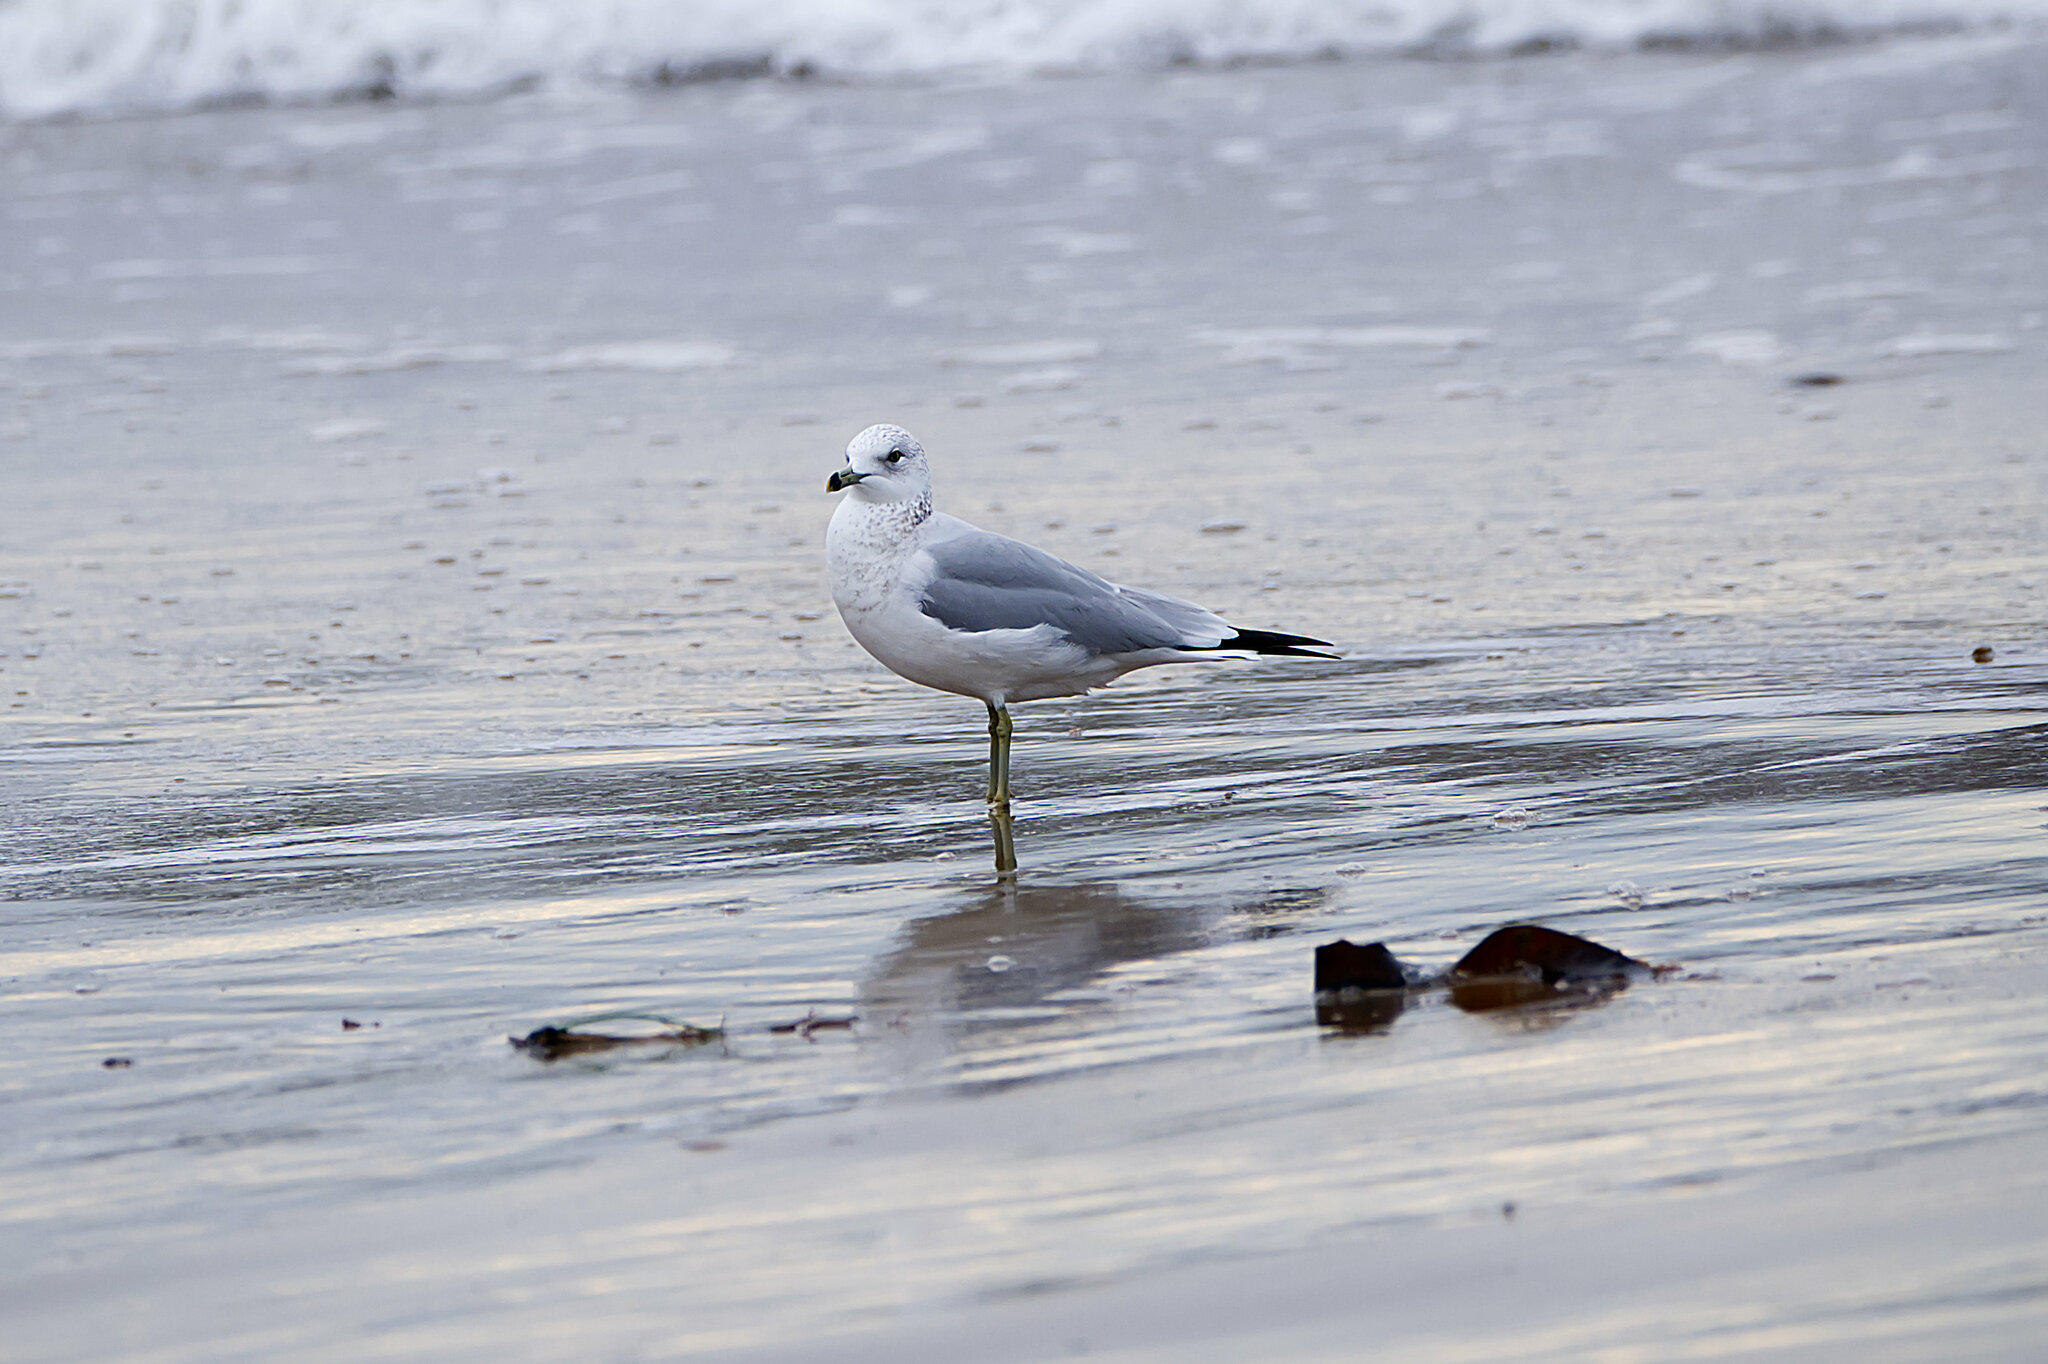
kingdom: Animalia
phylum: Chordata
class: Aves
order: Charadriiformes
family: Laridae
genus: Larus
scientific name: Larus delawarensis
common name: Ring-billed gull
